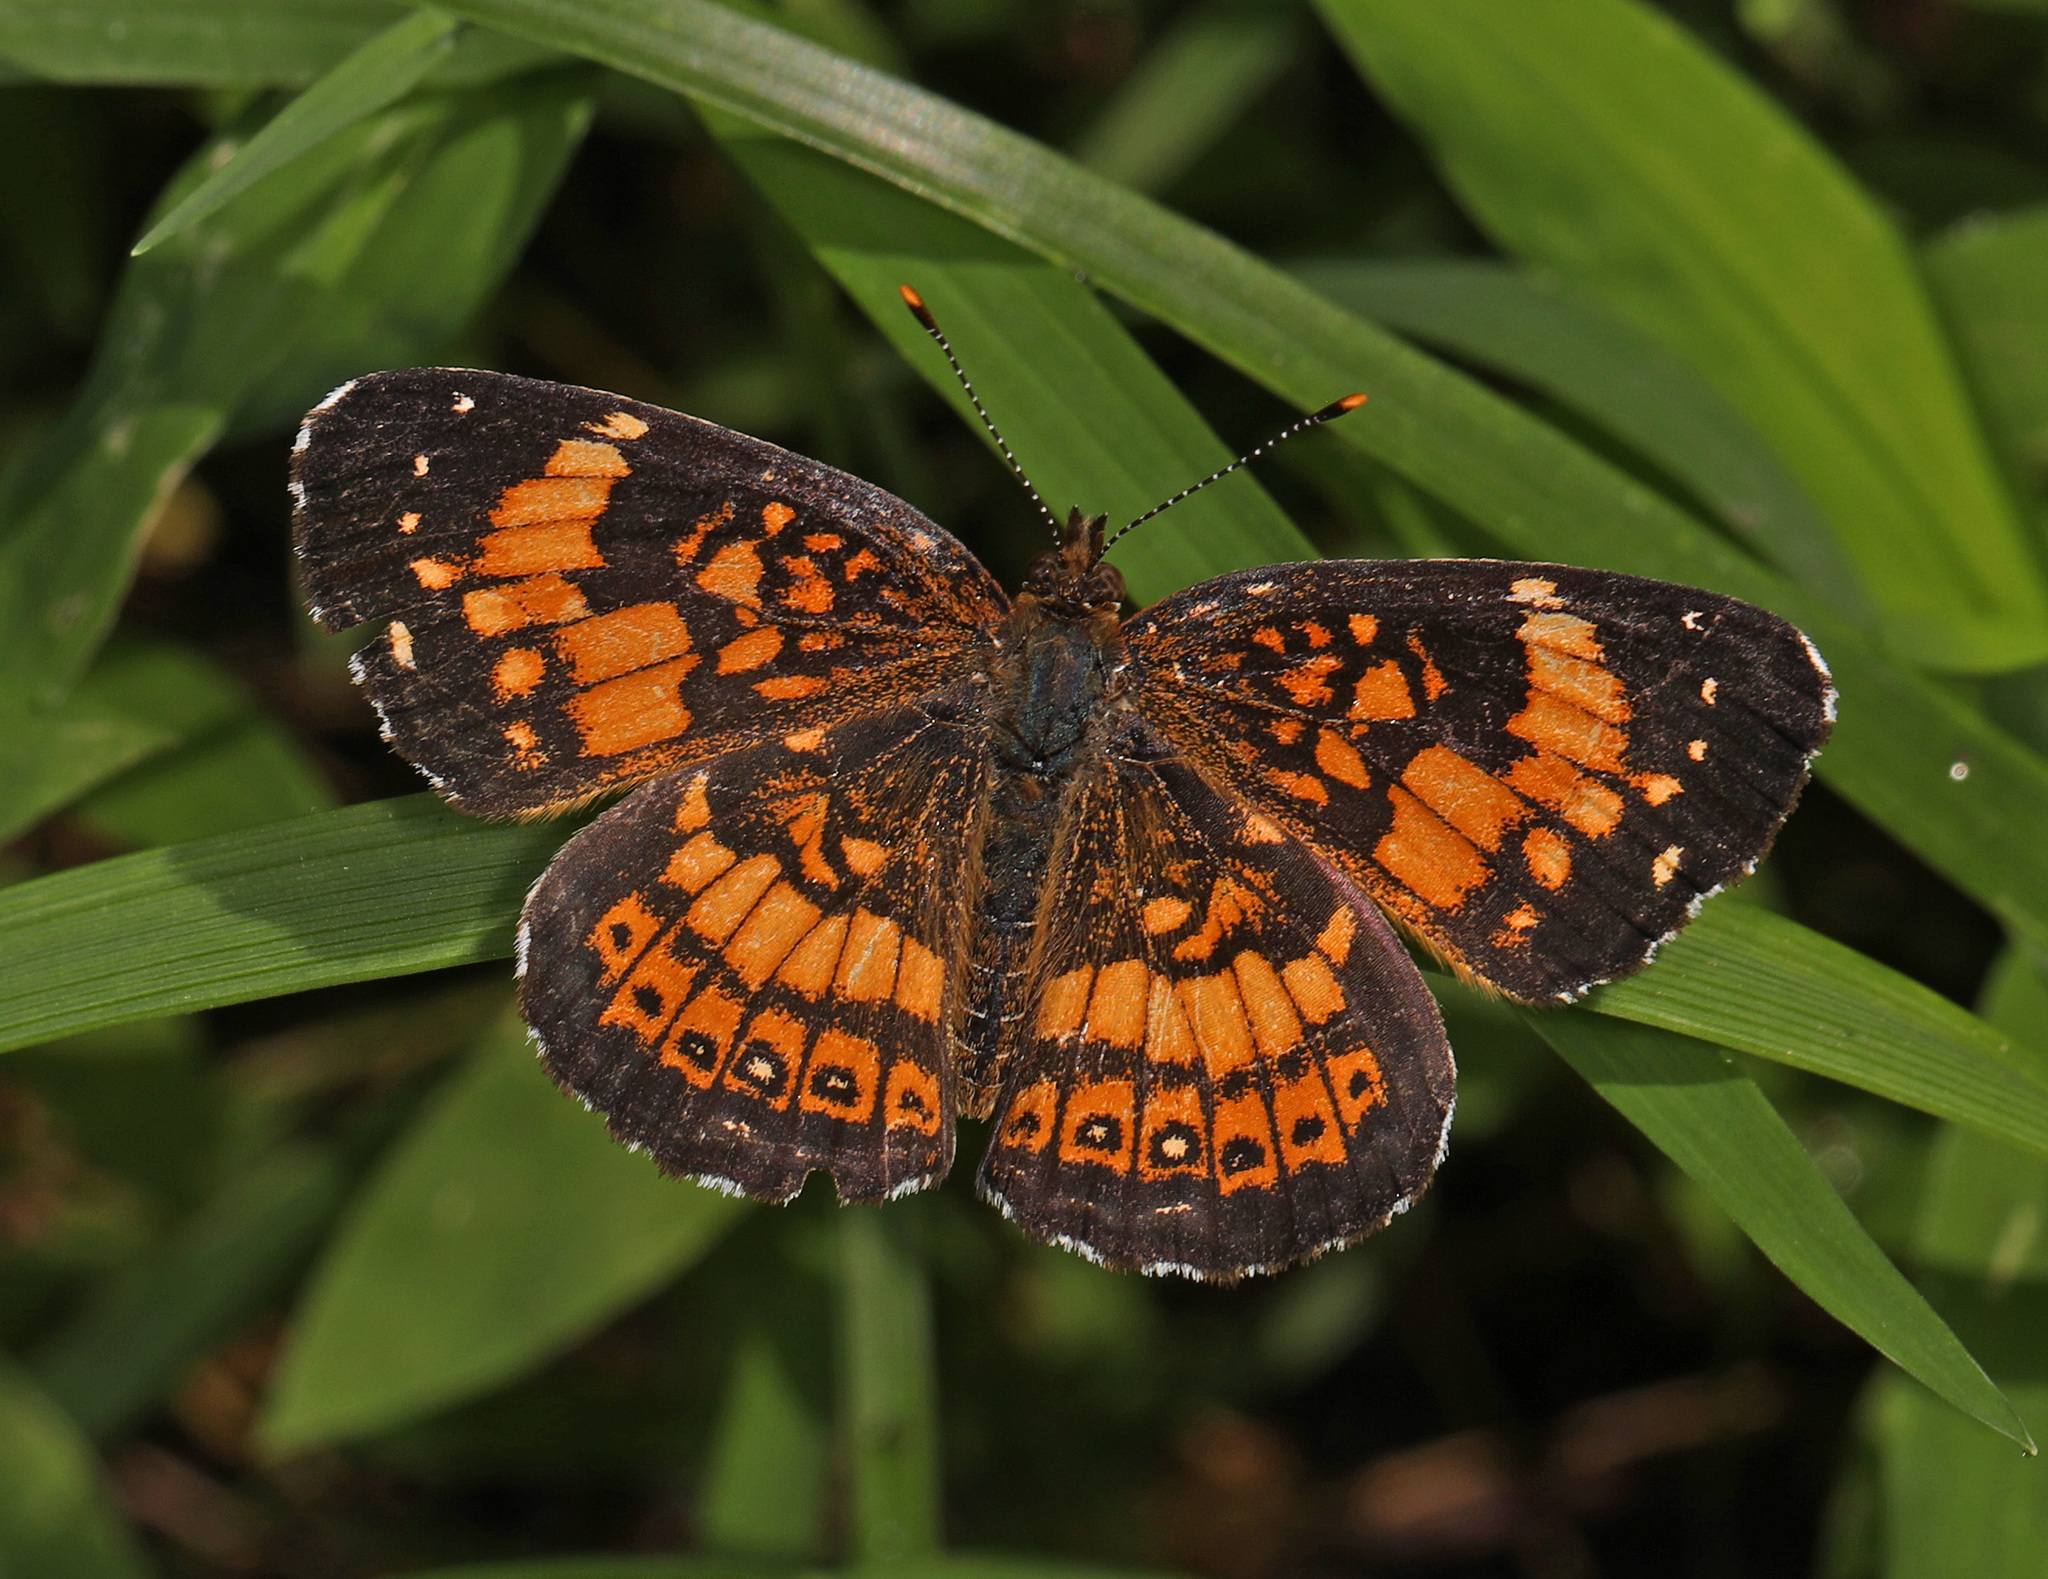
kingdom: Animalia
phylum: Arthropoda
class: Insecta
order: Lepidoptera
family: Nymphalidae
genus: Chlosyne
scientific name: Chlosyne nycteis
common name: Silvery checkerspot
